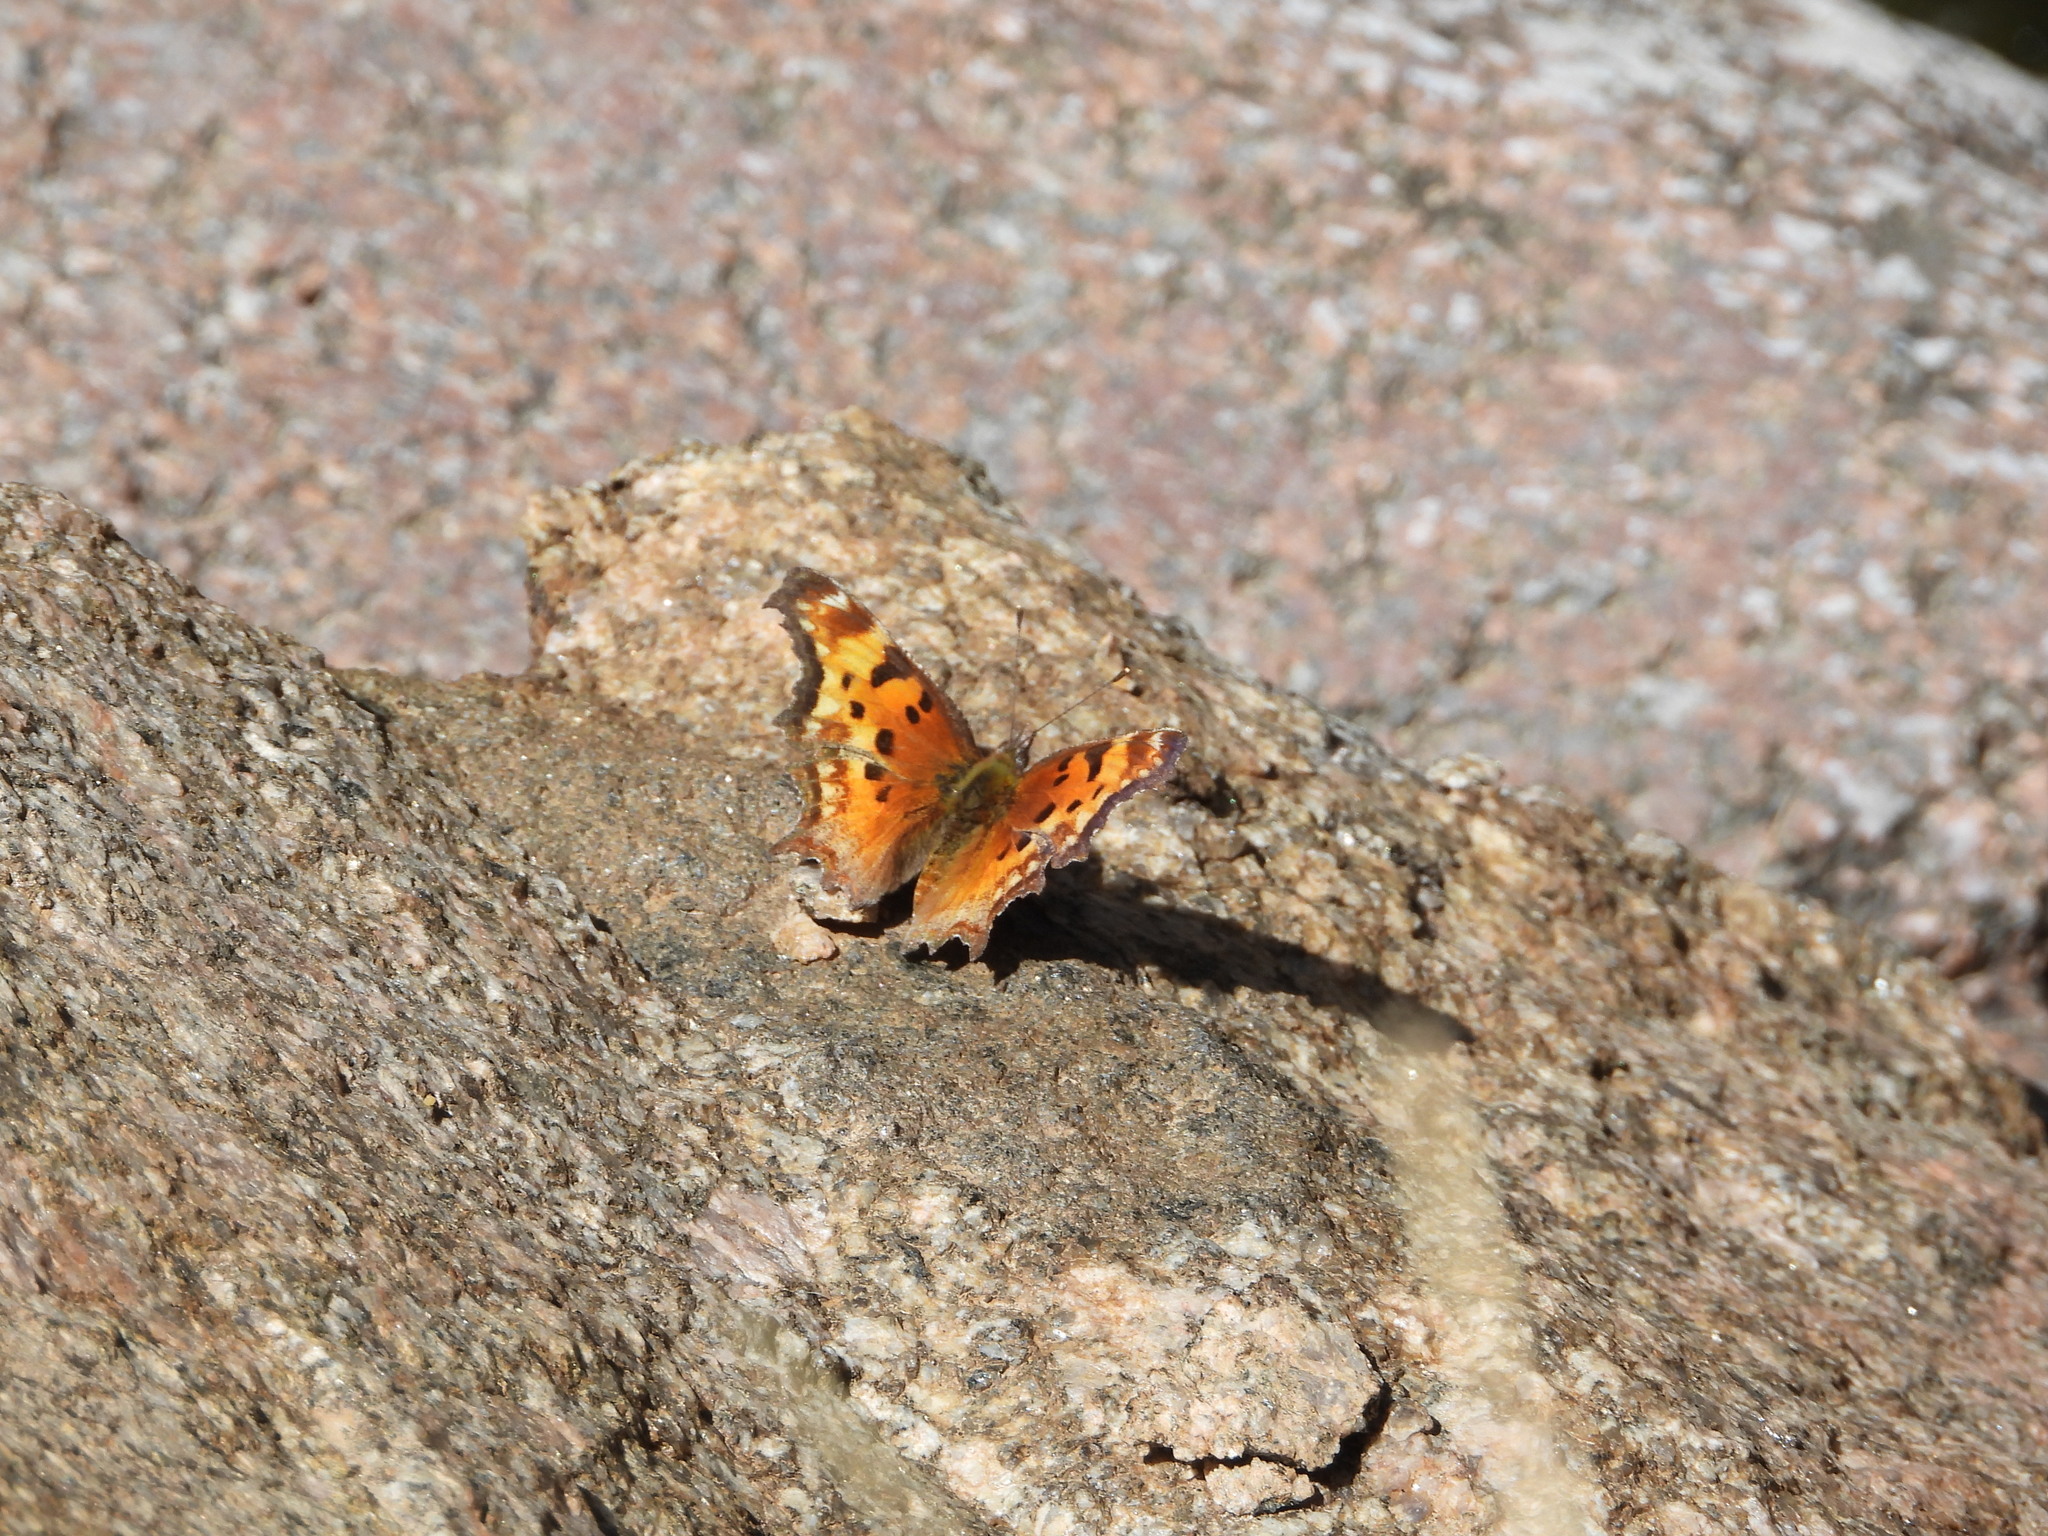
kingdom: Animalia
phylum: Arthropoda
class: Insecta
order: Lepidoptera
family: Nymphalidae
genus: Polygonia
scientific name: Polygonia gracilis
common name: Hoary comma
